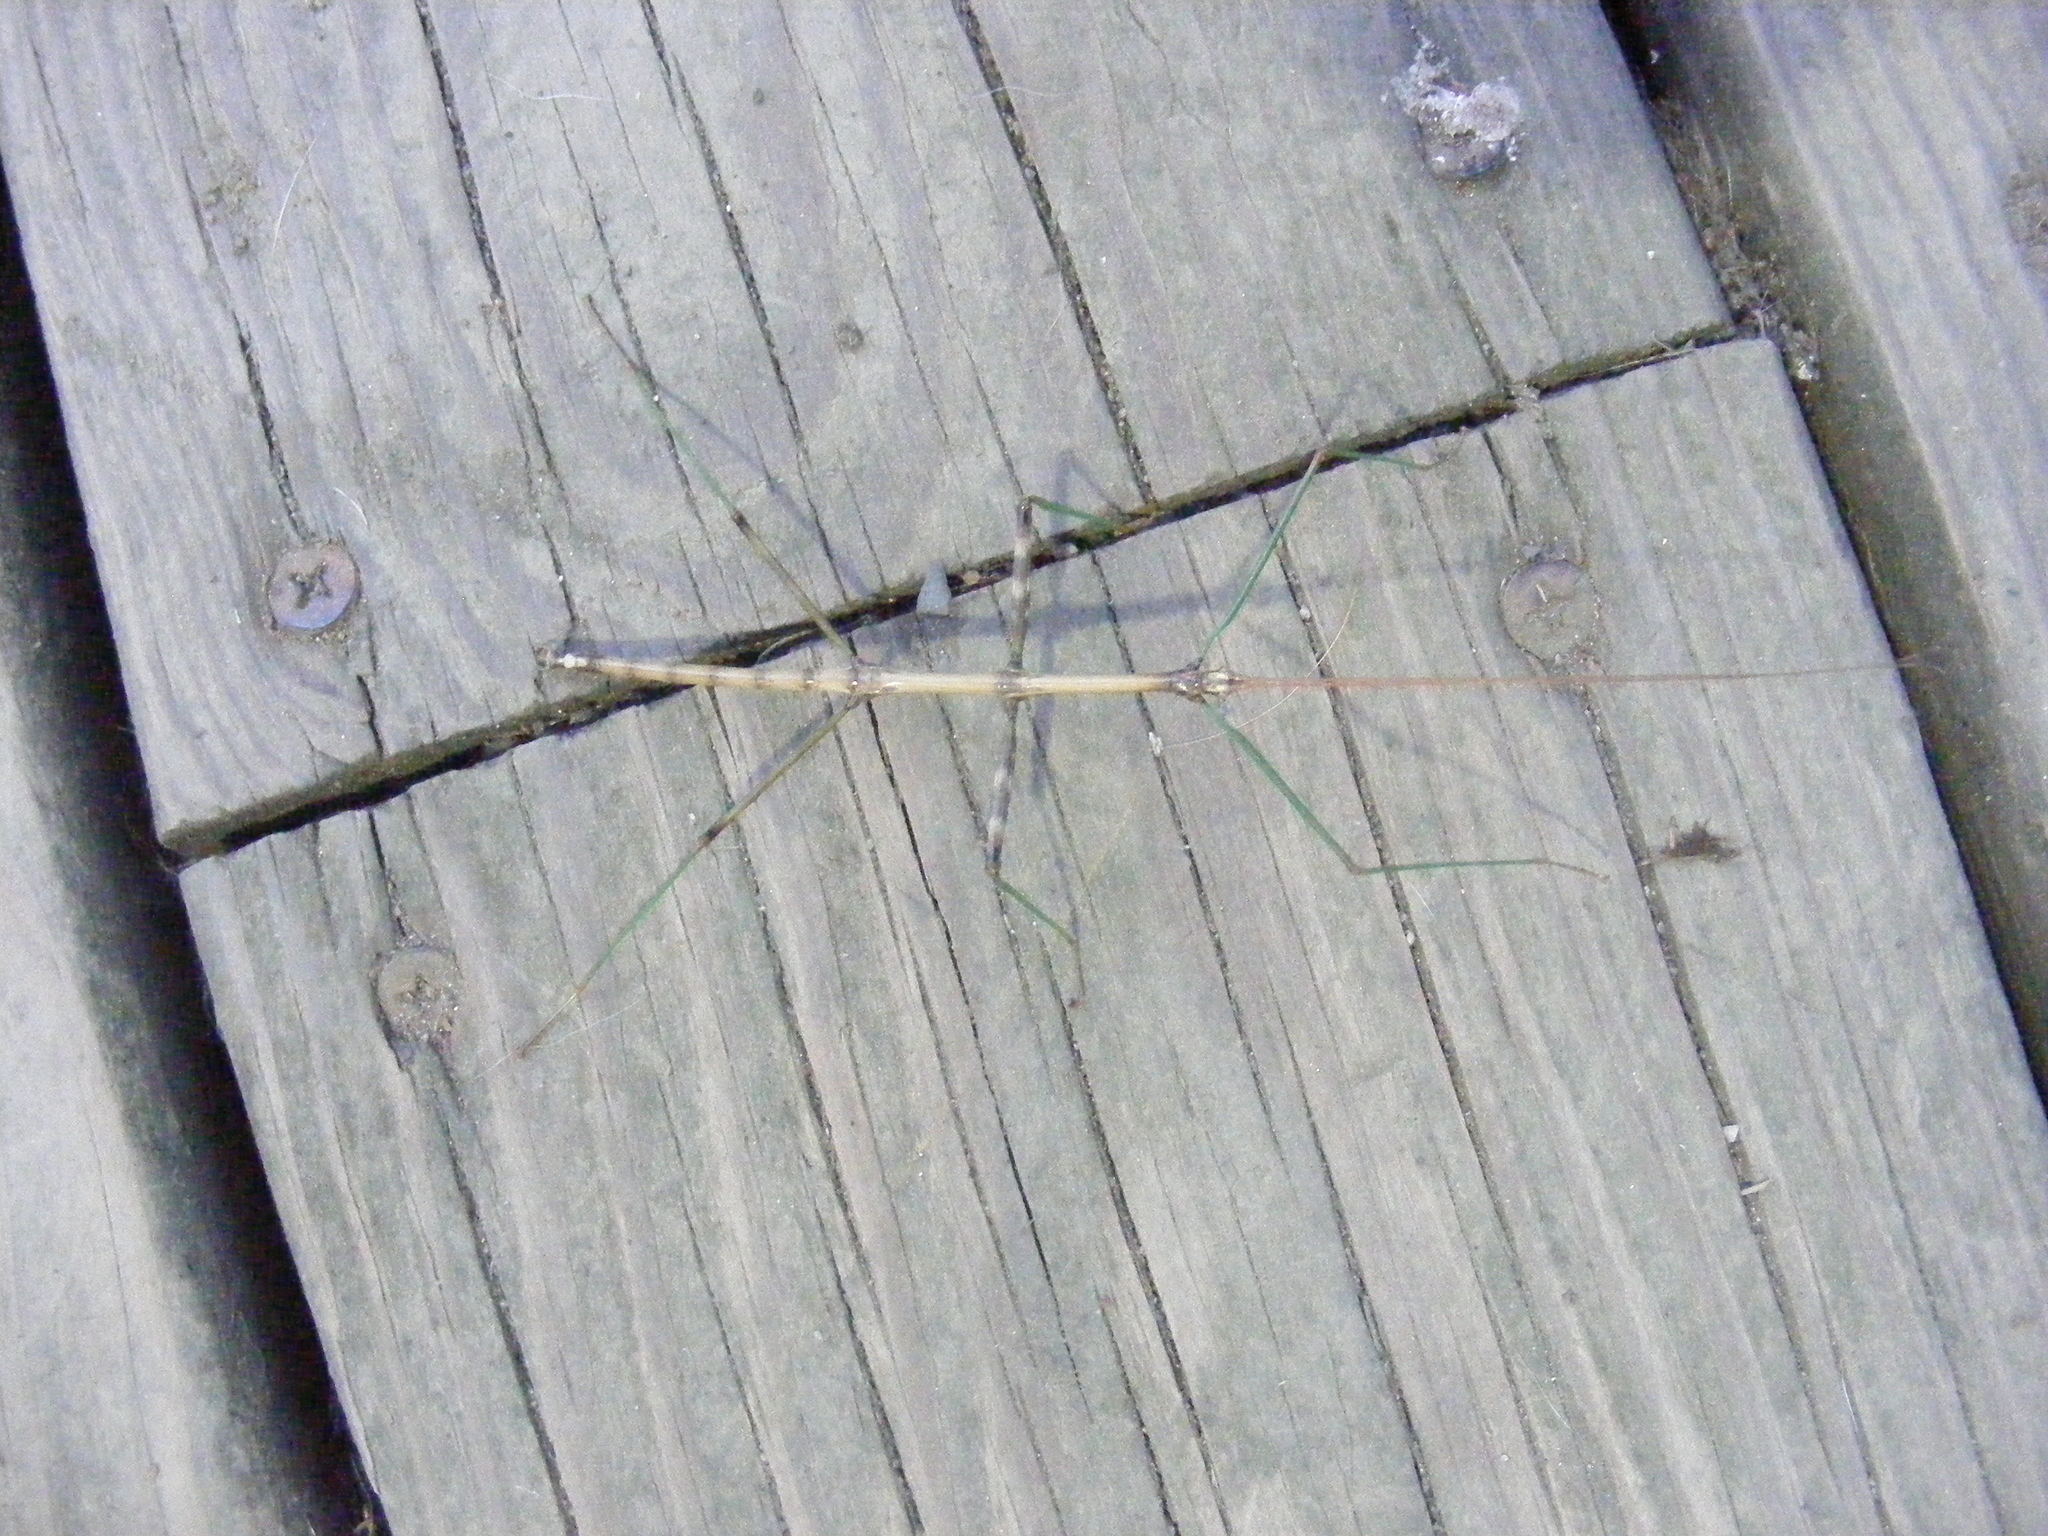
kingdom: Animalia
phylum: Arthropoda
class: Insecta
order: Phasmida
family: Diapheromeridae
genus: Diapheromera
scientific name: Diapheromera femorata
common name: Common american walkingstick
